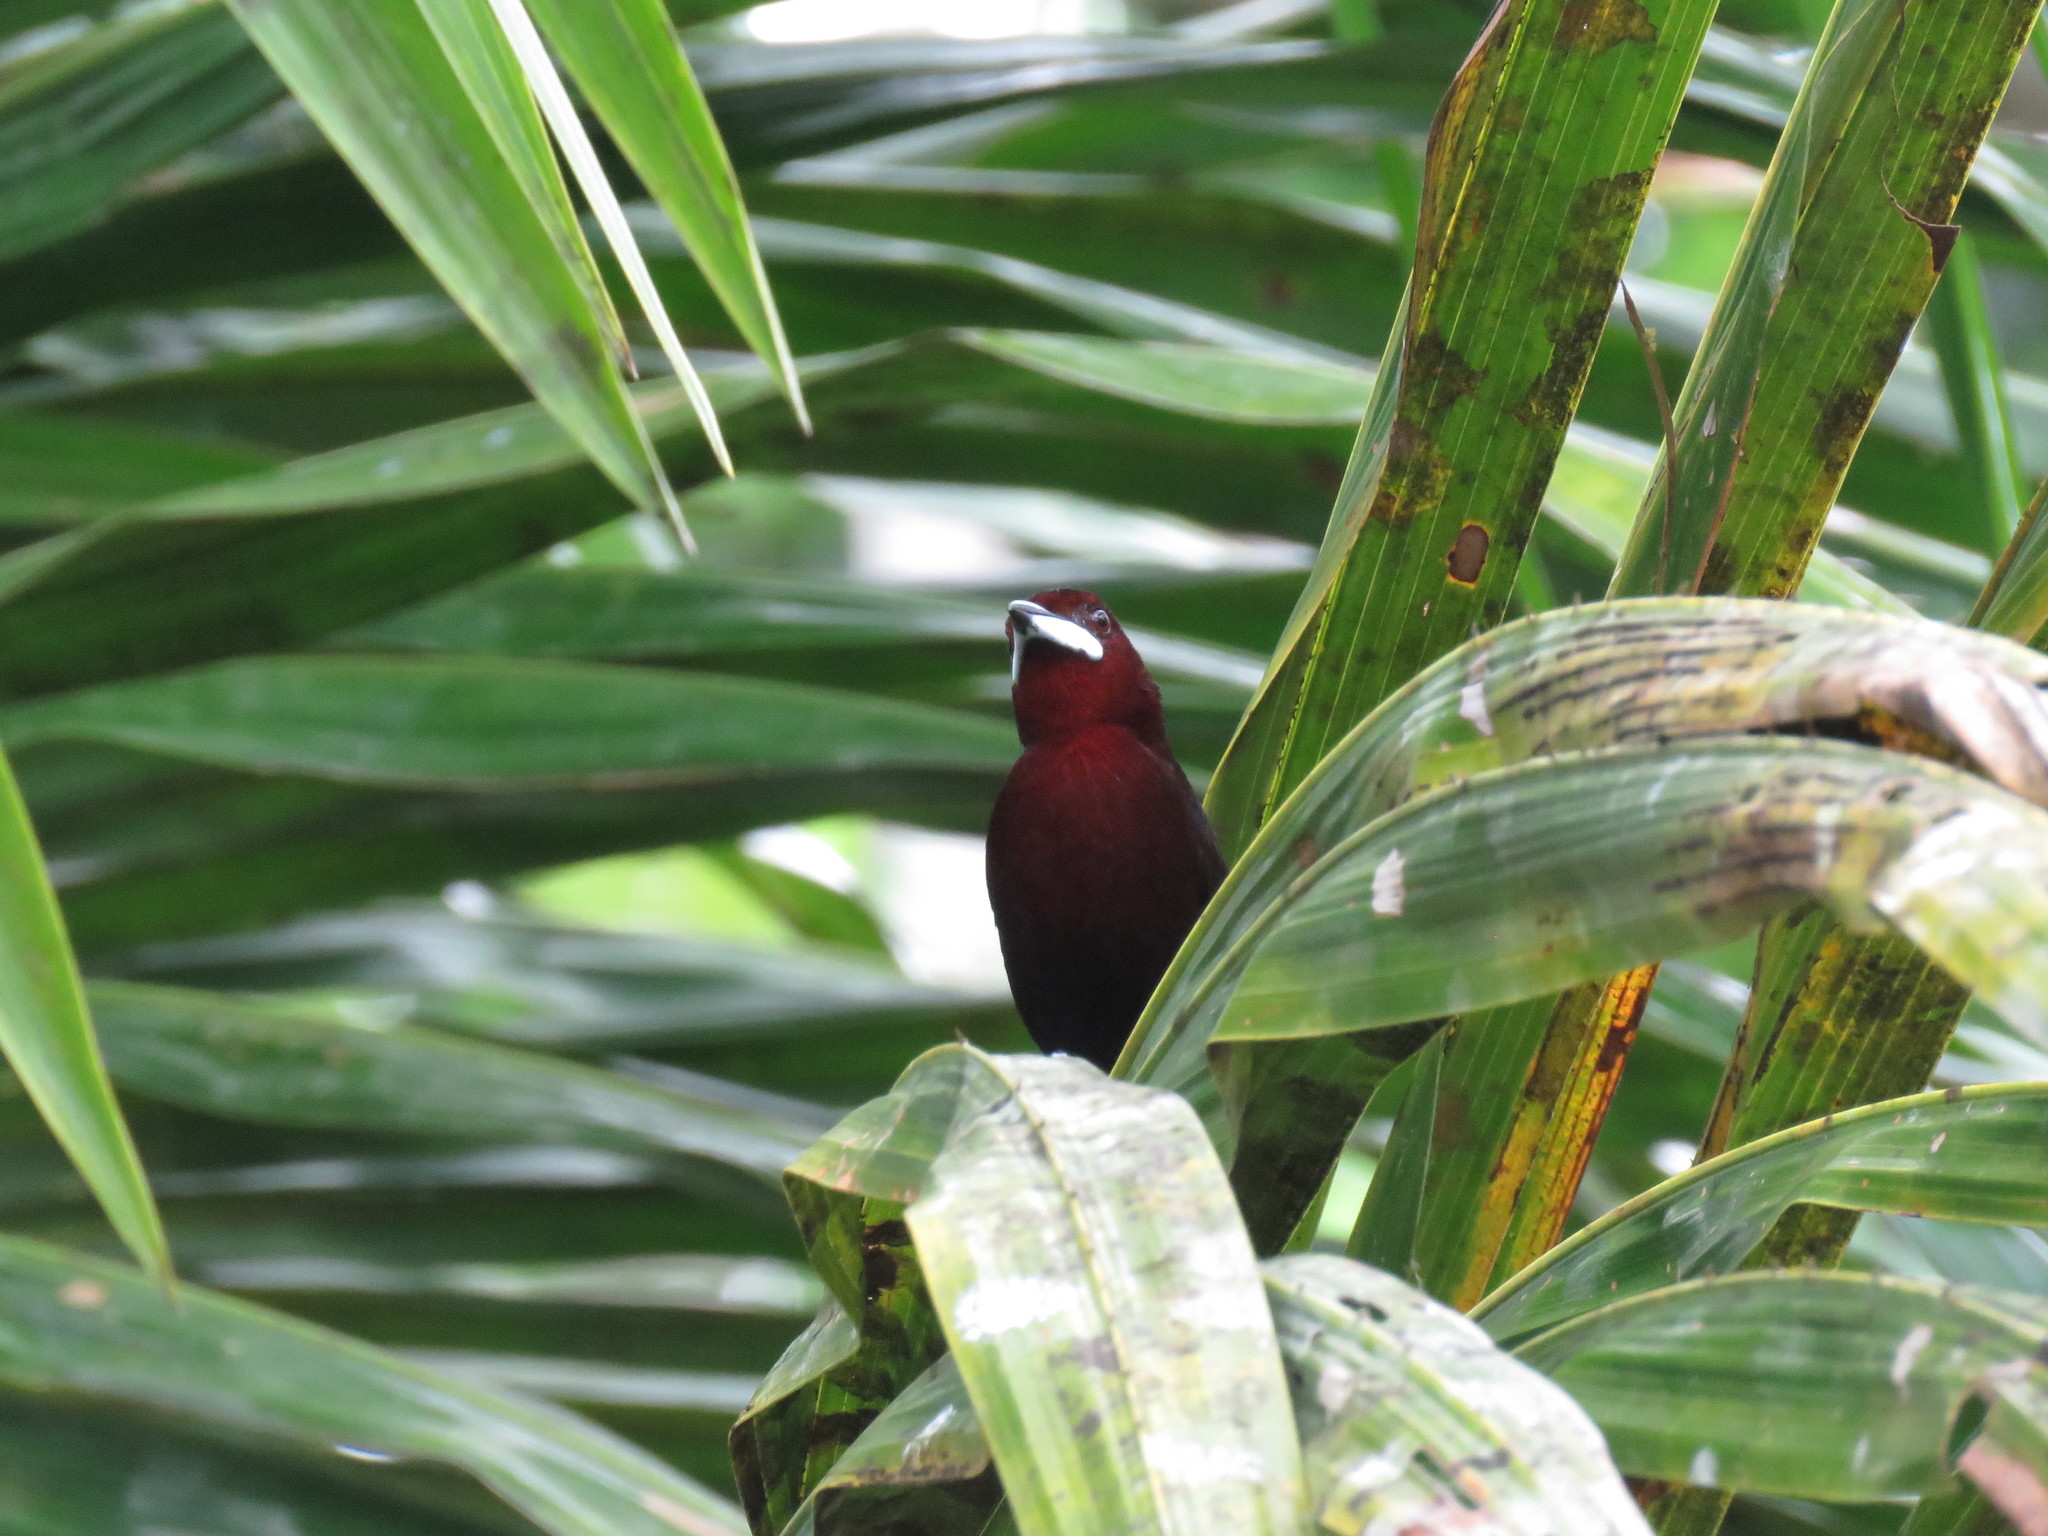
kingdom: Animalia
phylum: Chordata
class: Aves
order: Passeriformes
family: Thraupidae
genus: Ramphocelus
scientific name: Ramphocelus carbo
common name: Silver-beaked tanager
